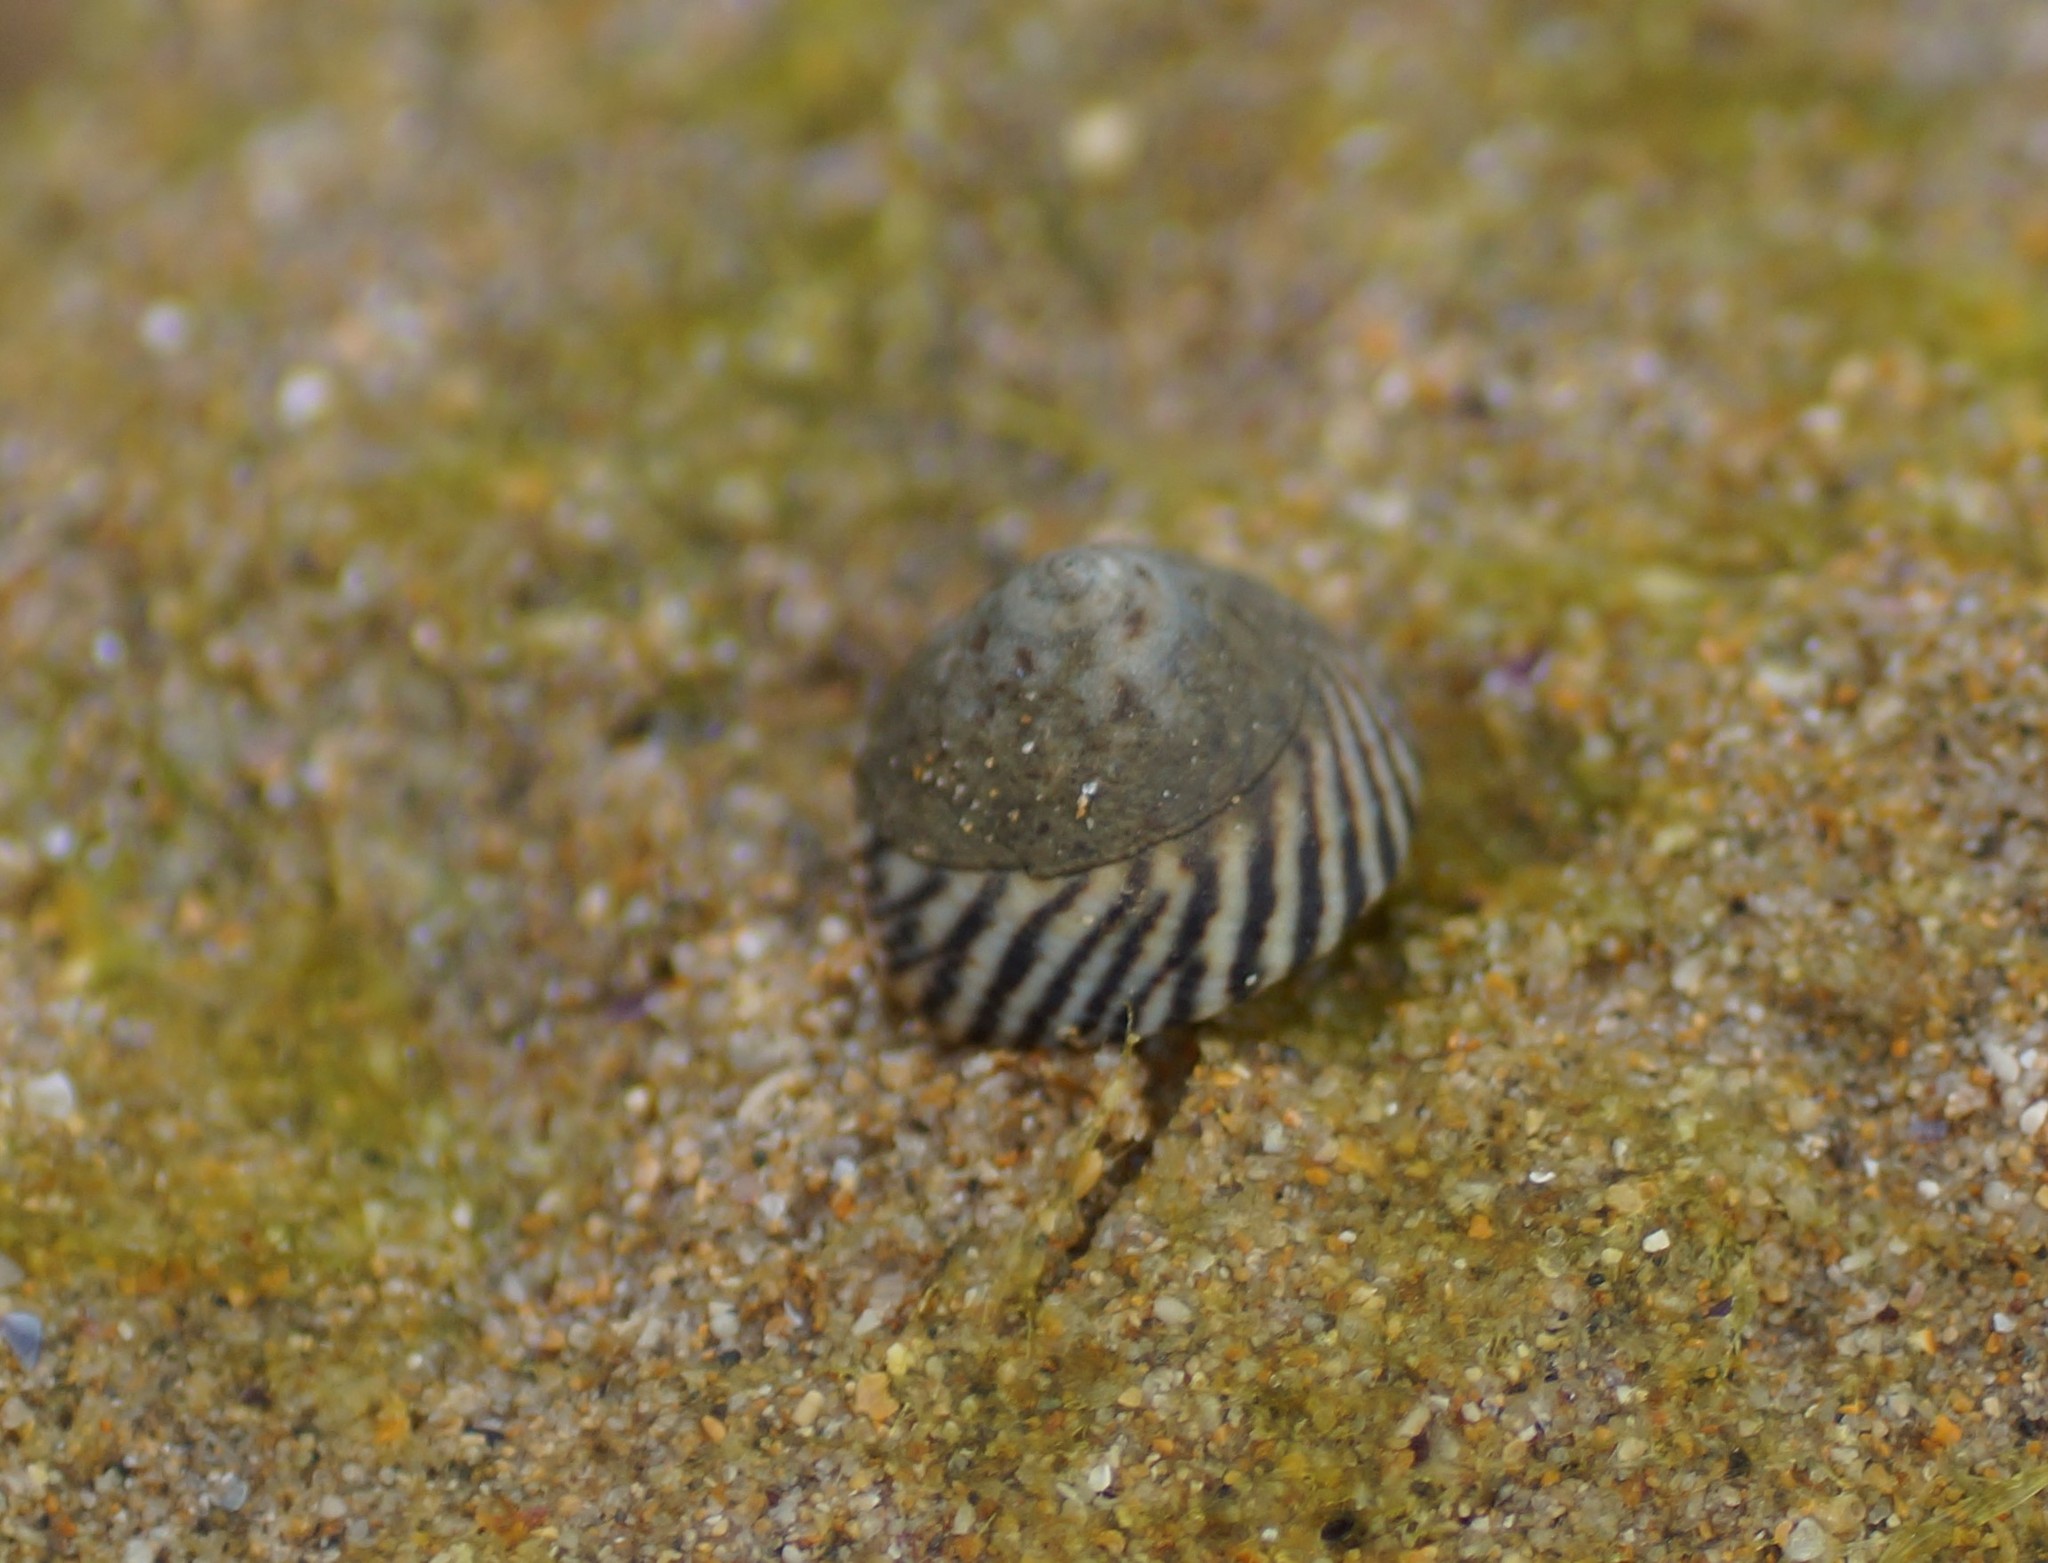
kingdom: Animalia
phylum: Mollusca
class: Gastropoda
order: Littorinimorpha
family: Littorinidae
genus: Bembicium
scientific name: Bembicium nanum
